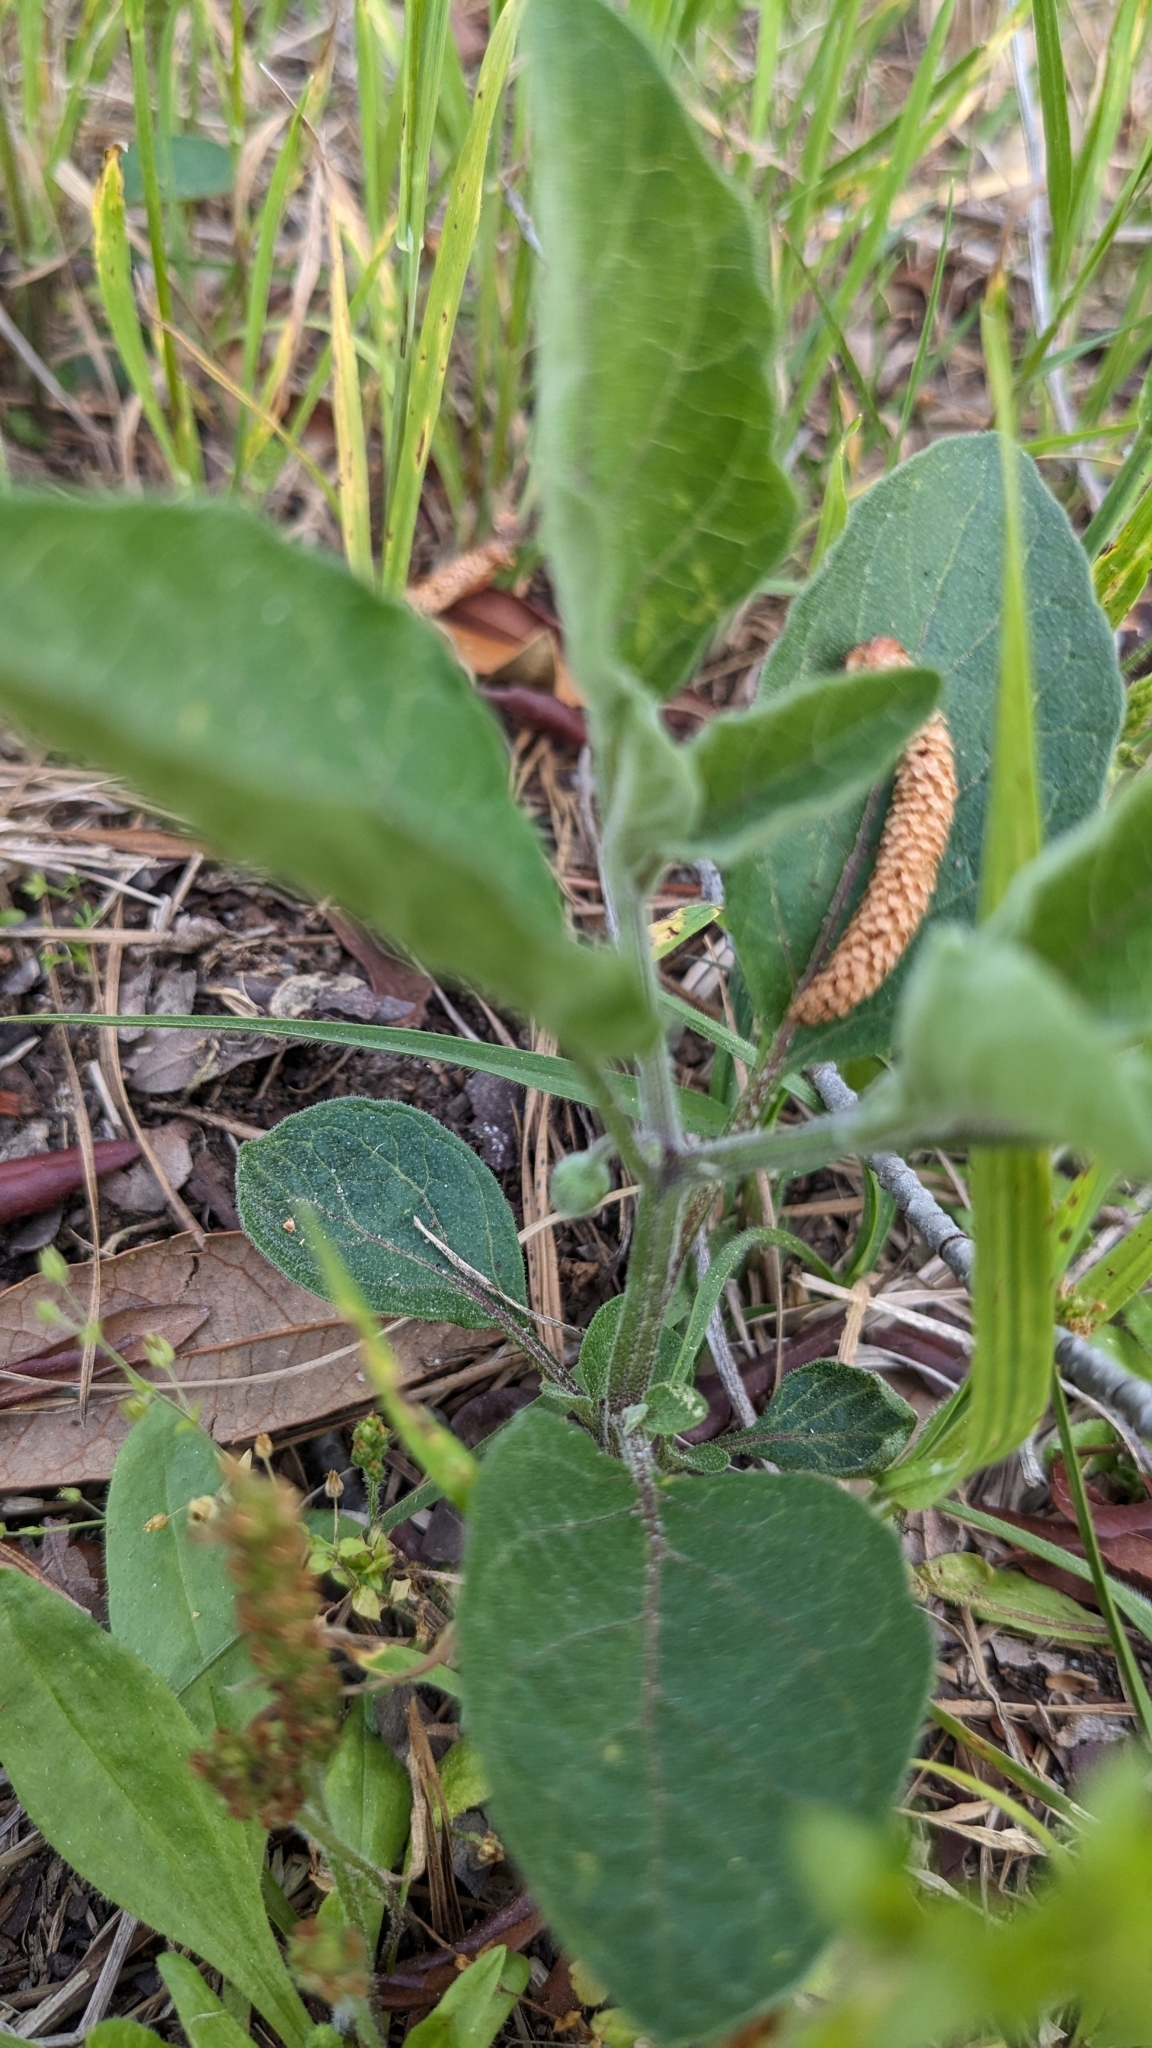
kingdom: Plantae
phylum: Tracheophyta
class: Magnoliopsida
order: Solanales
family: Solanaceae
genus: Physalis
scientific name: Physalis walteri
